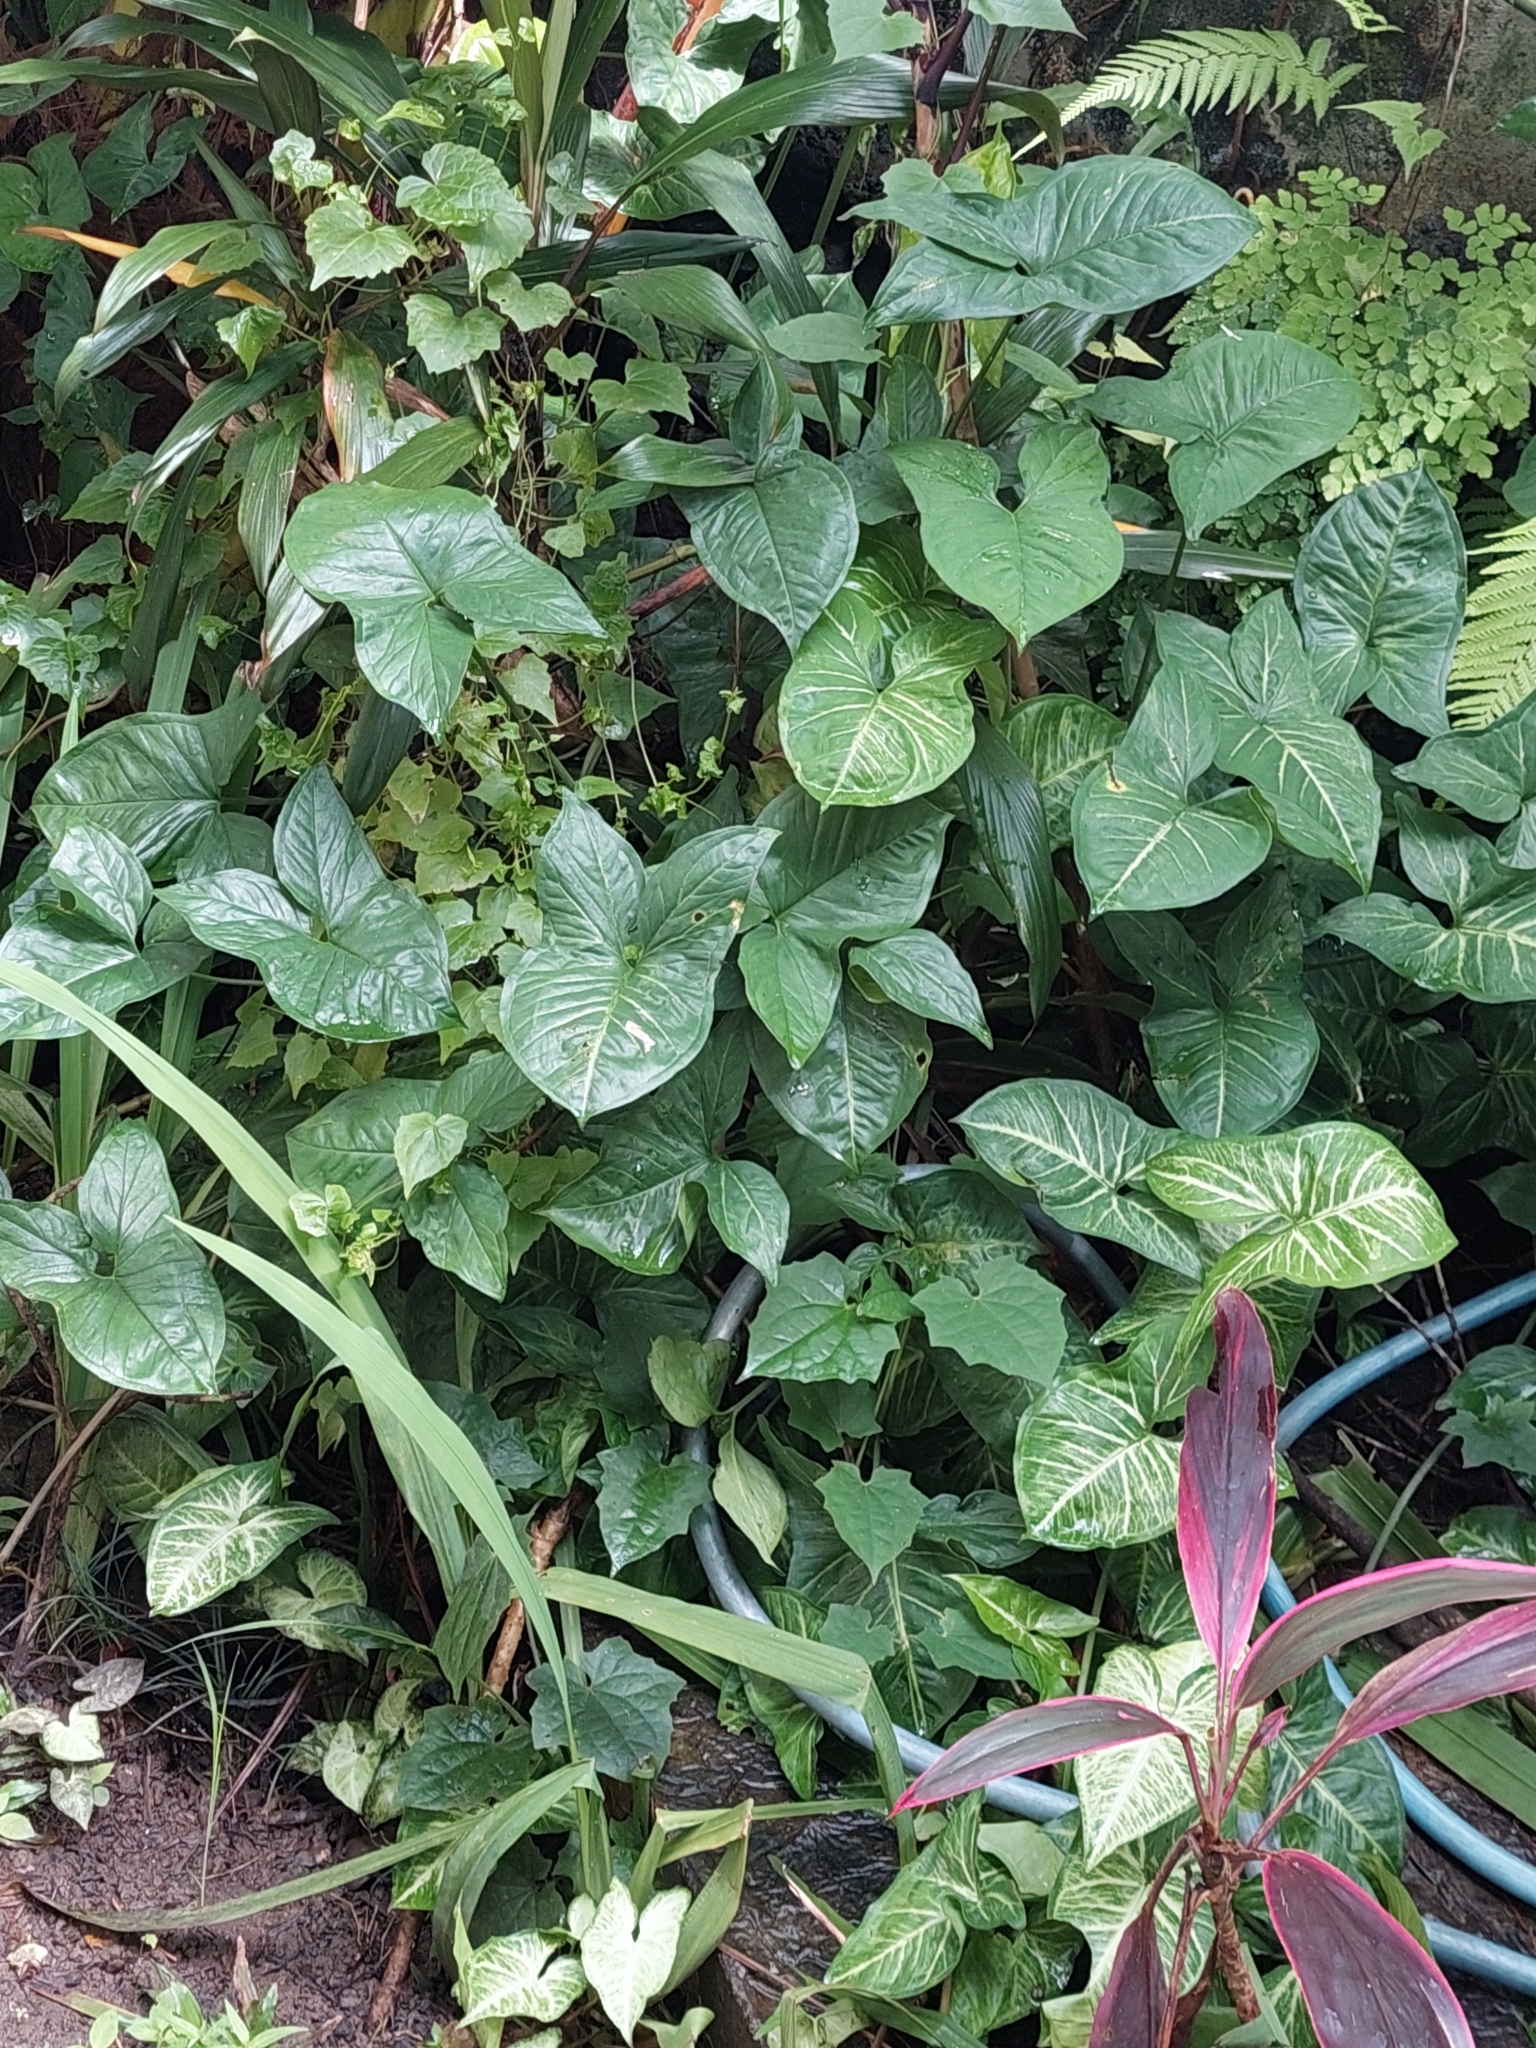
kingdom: Plantae
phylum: Tracheophyta
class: Liliopsida
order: Alismatales
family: Araceae
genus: Syngonium
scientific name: Syngonium podophyllum
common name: American evergreen
